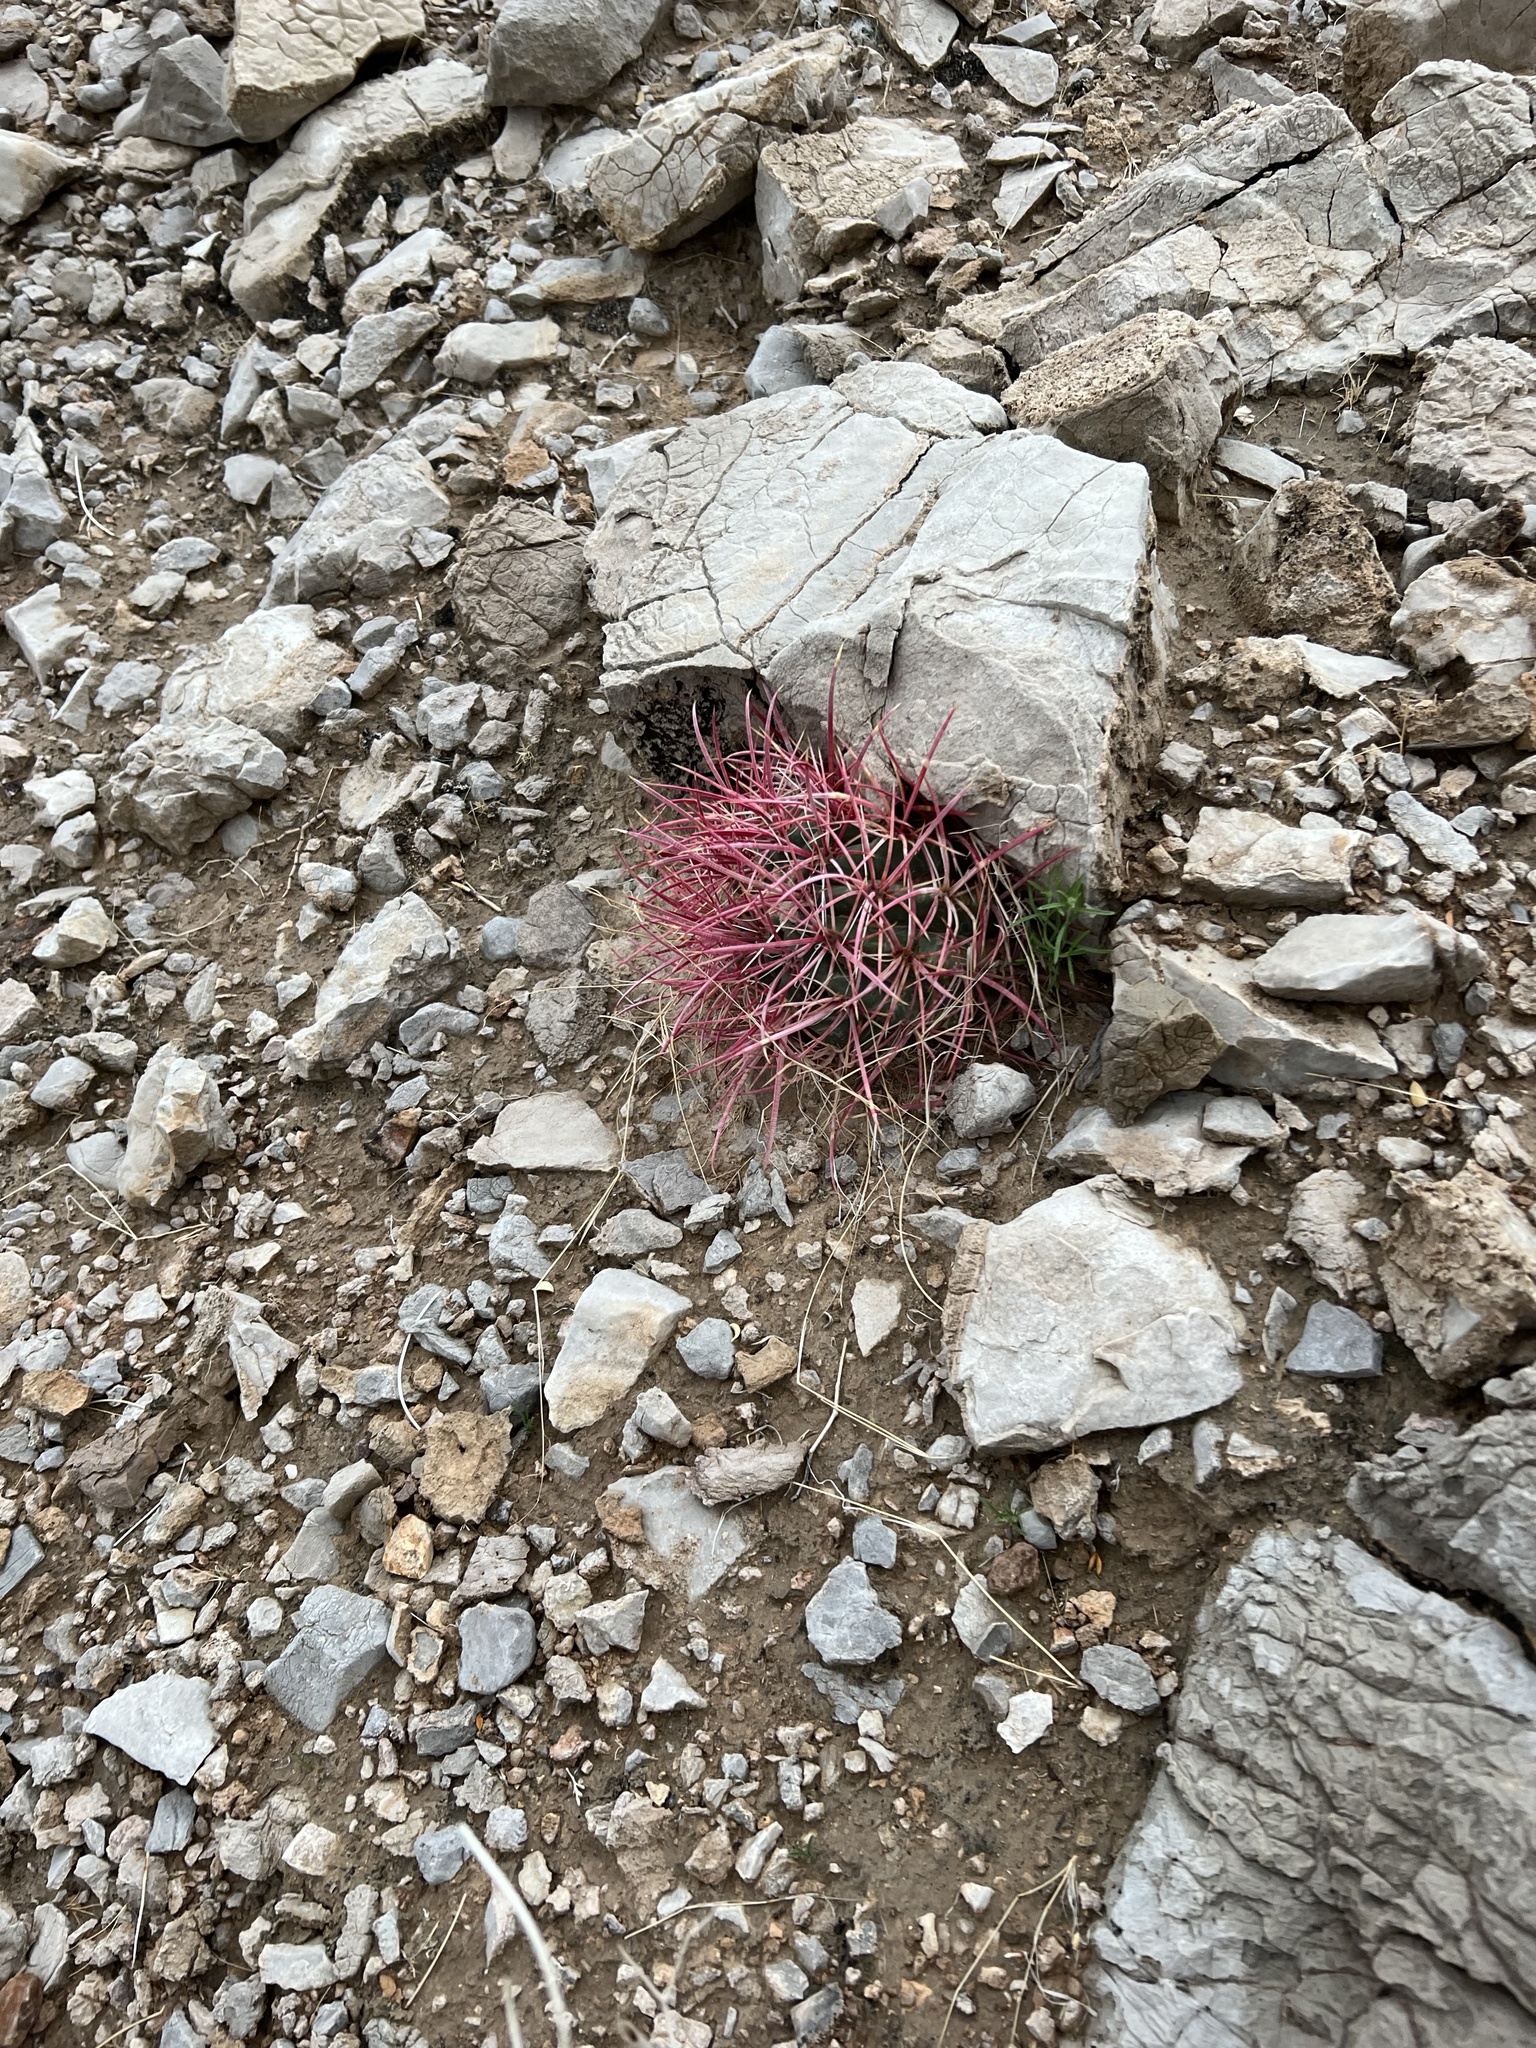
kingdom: Plantae
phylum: Tracheophyta
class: Magnoliopsida
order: Caryophyllales
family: Cactaceae
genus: Ferocactus
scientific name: Ferocactus cylindraceus
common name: California barrel cactus
